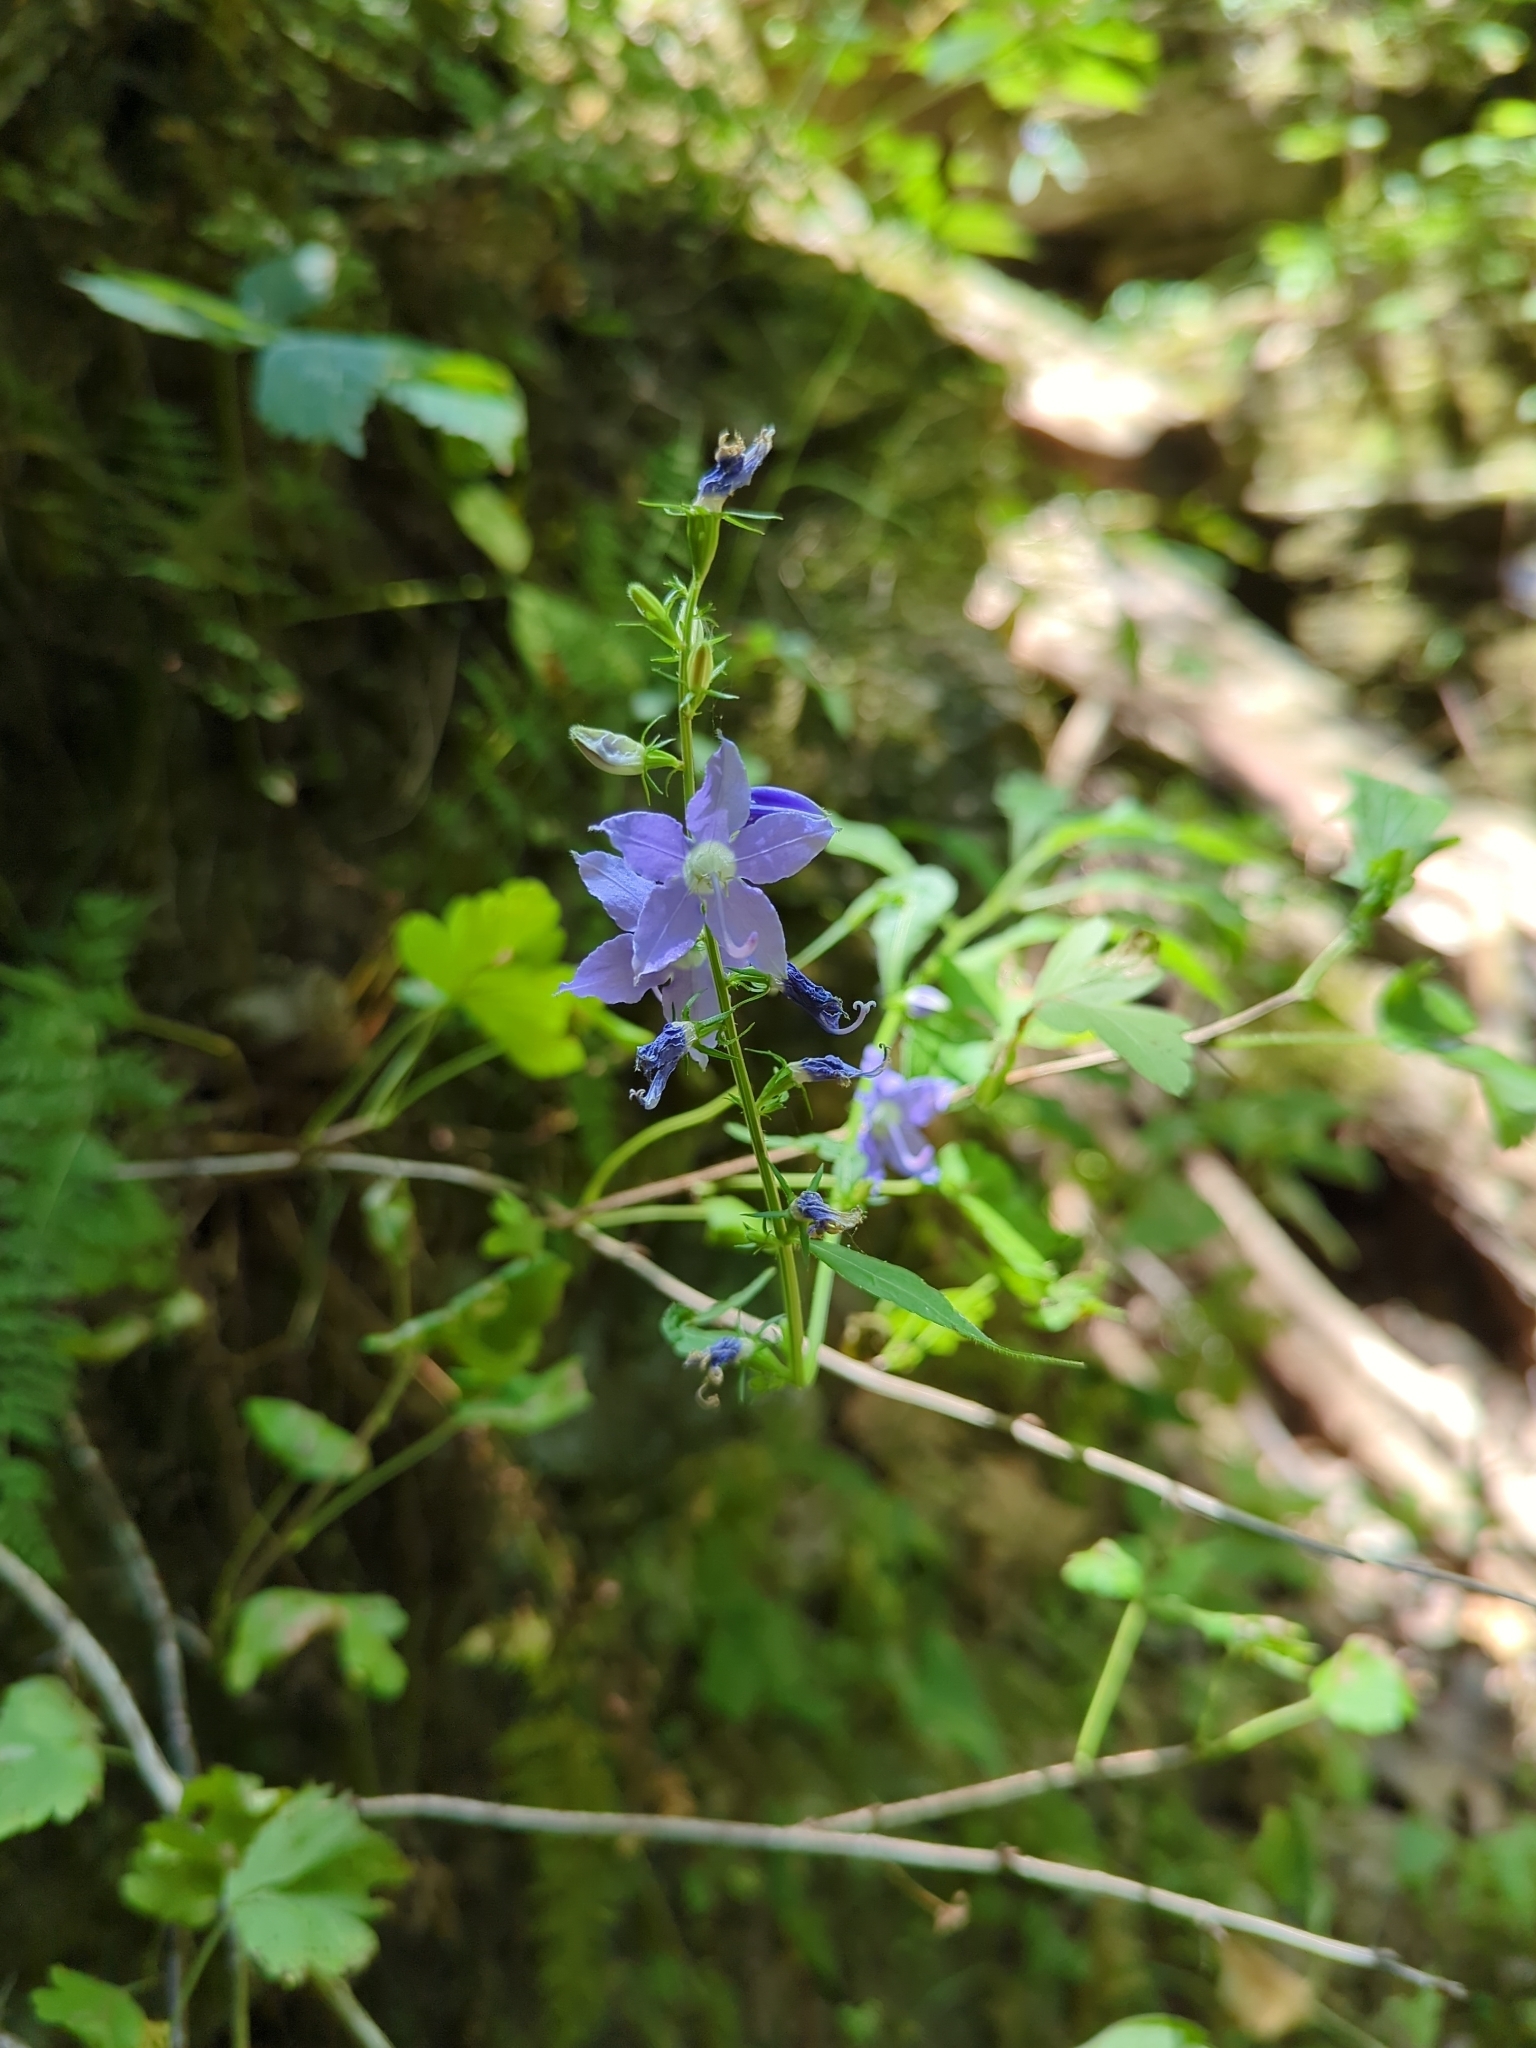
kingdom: Plantae
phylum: Tracheophyta
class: Magnoliopsida
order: Asterales
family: Campanulaceae
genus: Campanulastrum
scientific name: Campanulastrum americanum
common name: American bellflower
